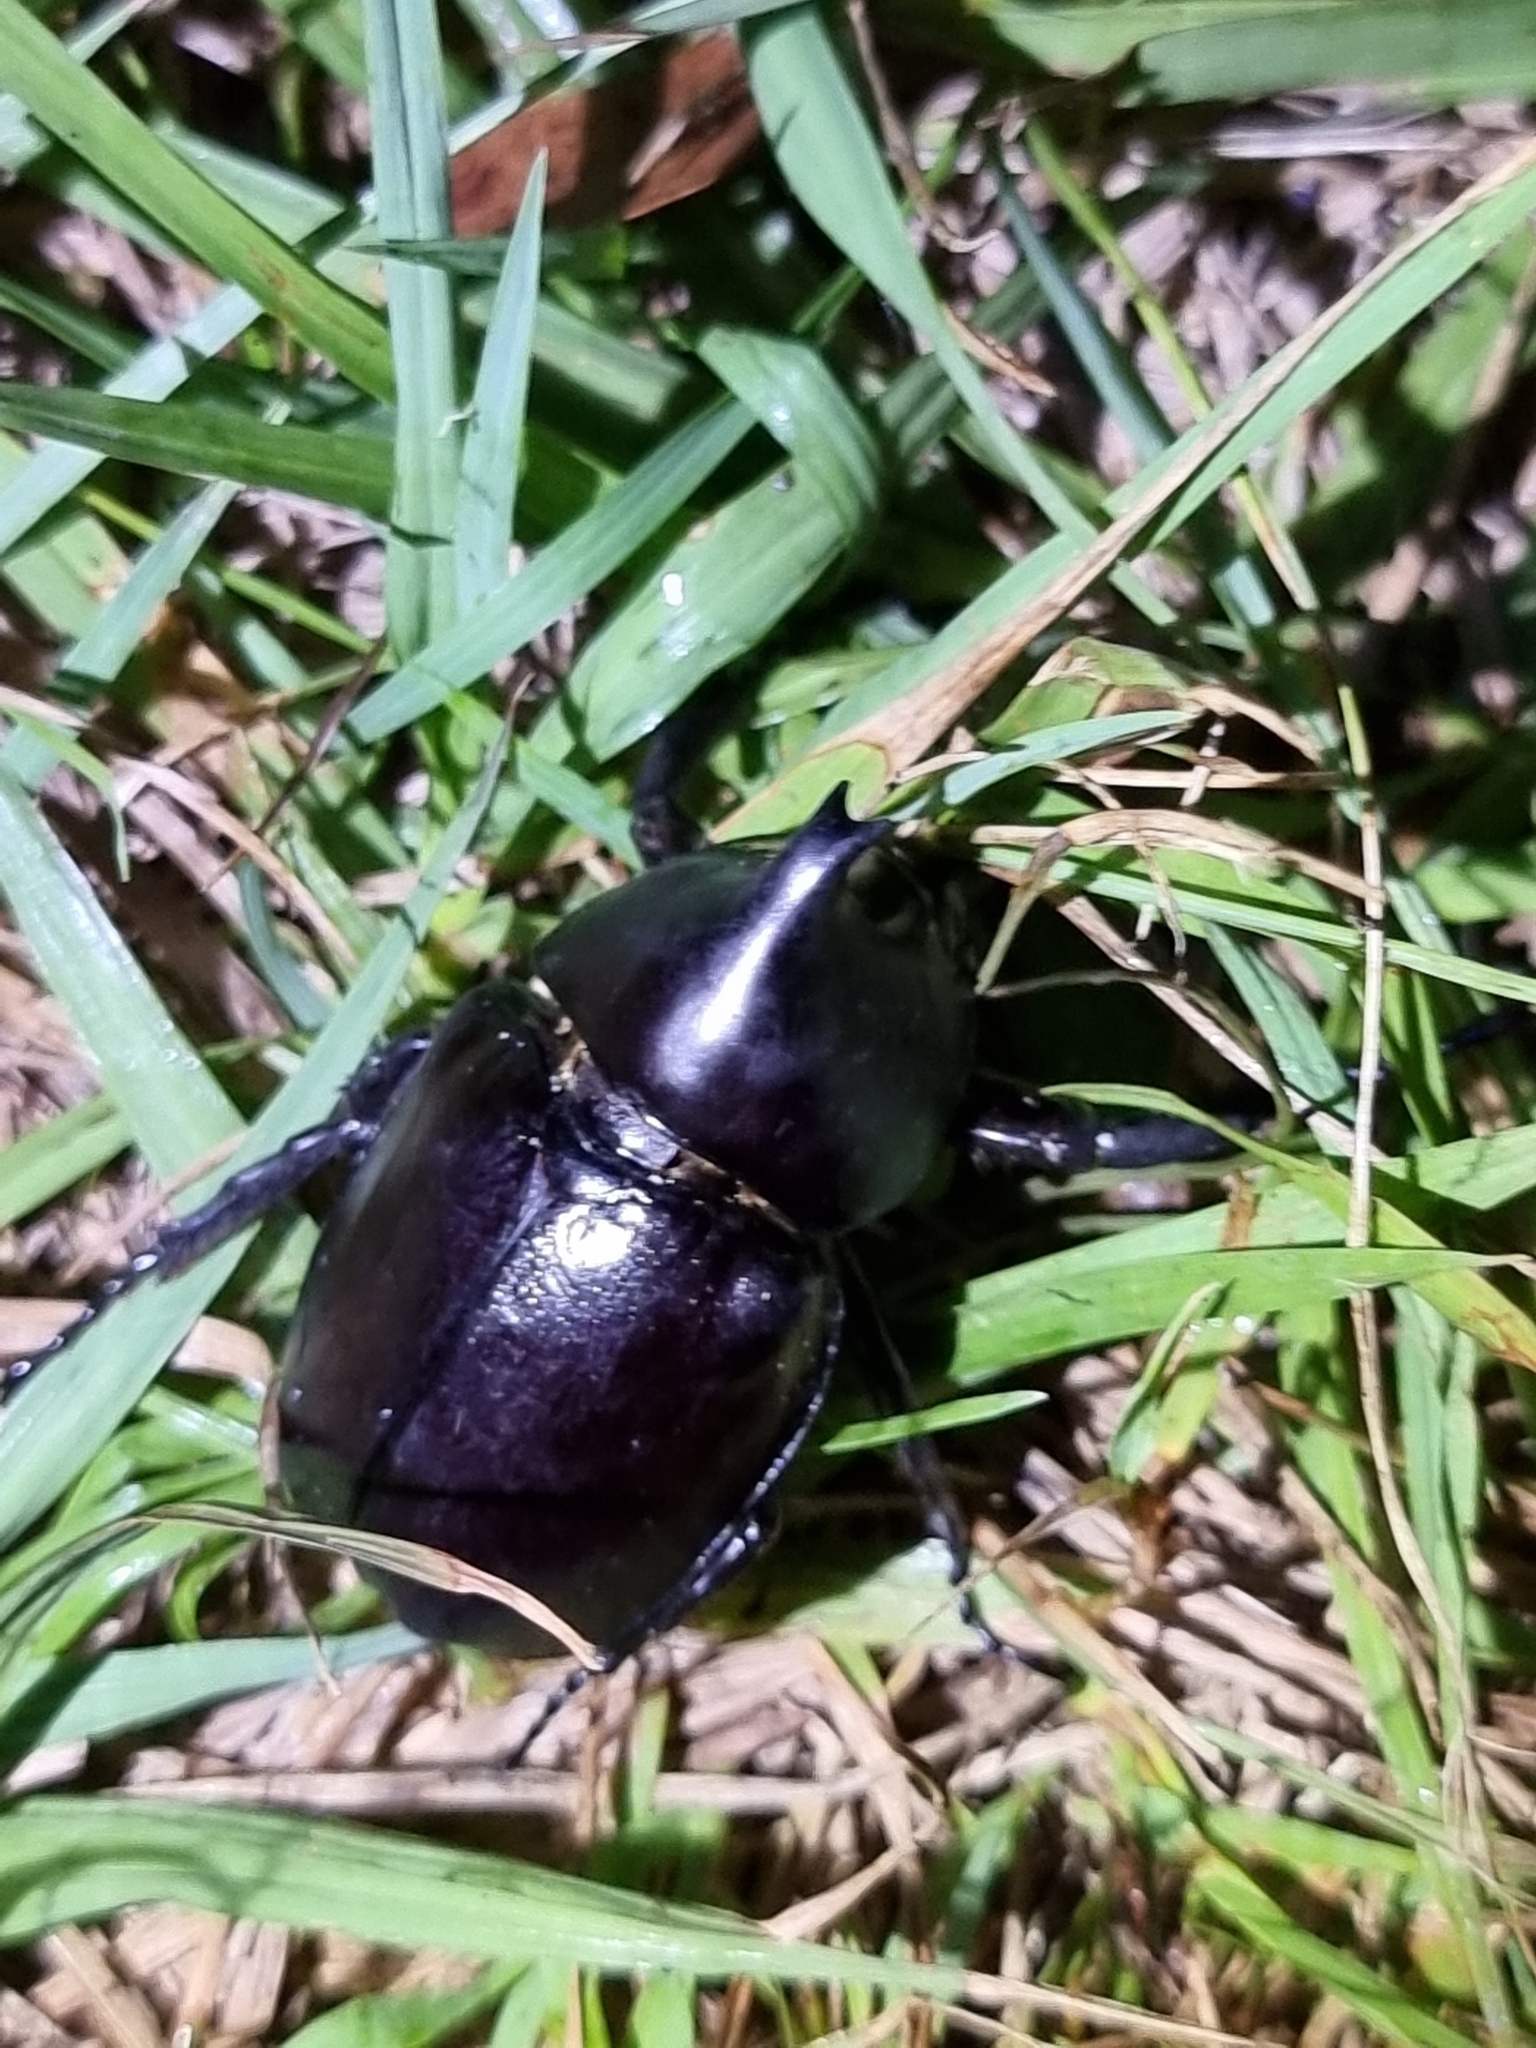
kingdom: Animalia
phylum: Arthropoda
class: Insecta
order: Coleoptera
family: Scarabaeidae
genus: Xylotrupes
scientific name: Xylotrupes australicus
